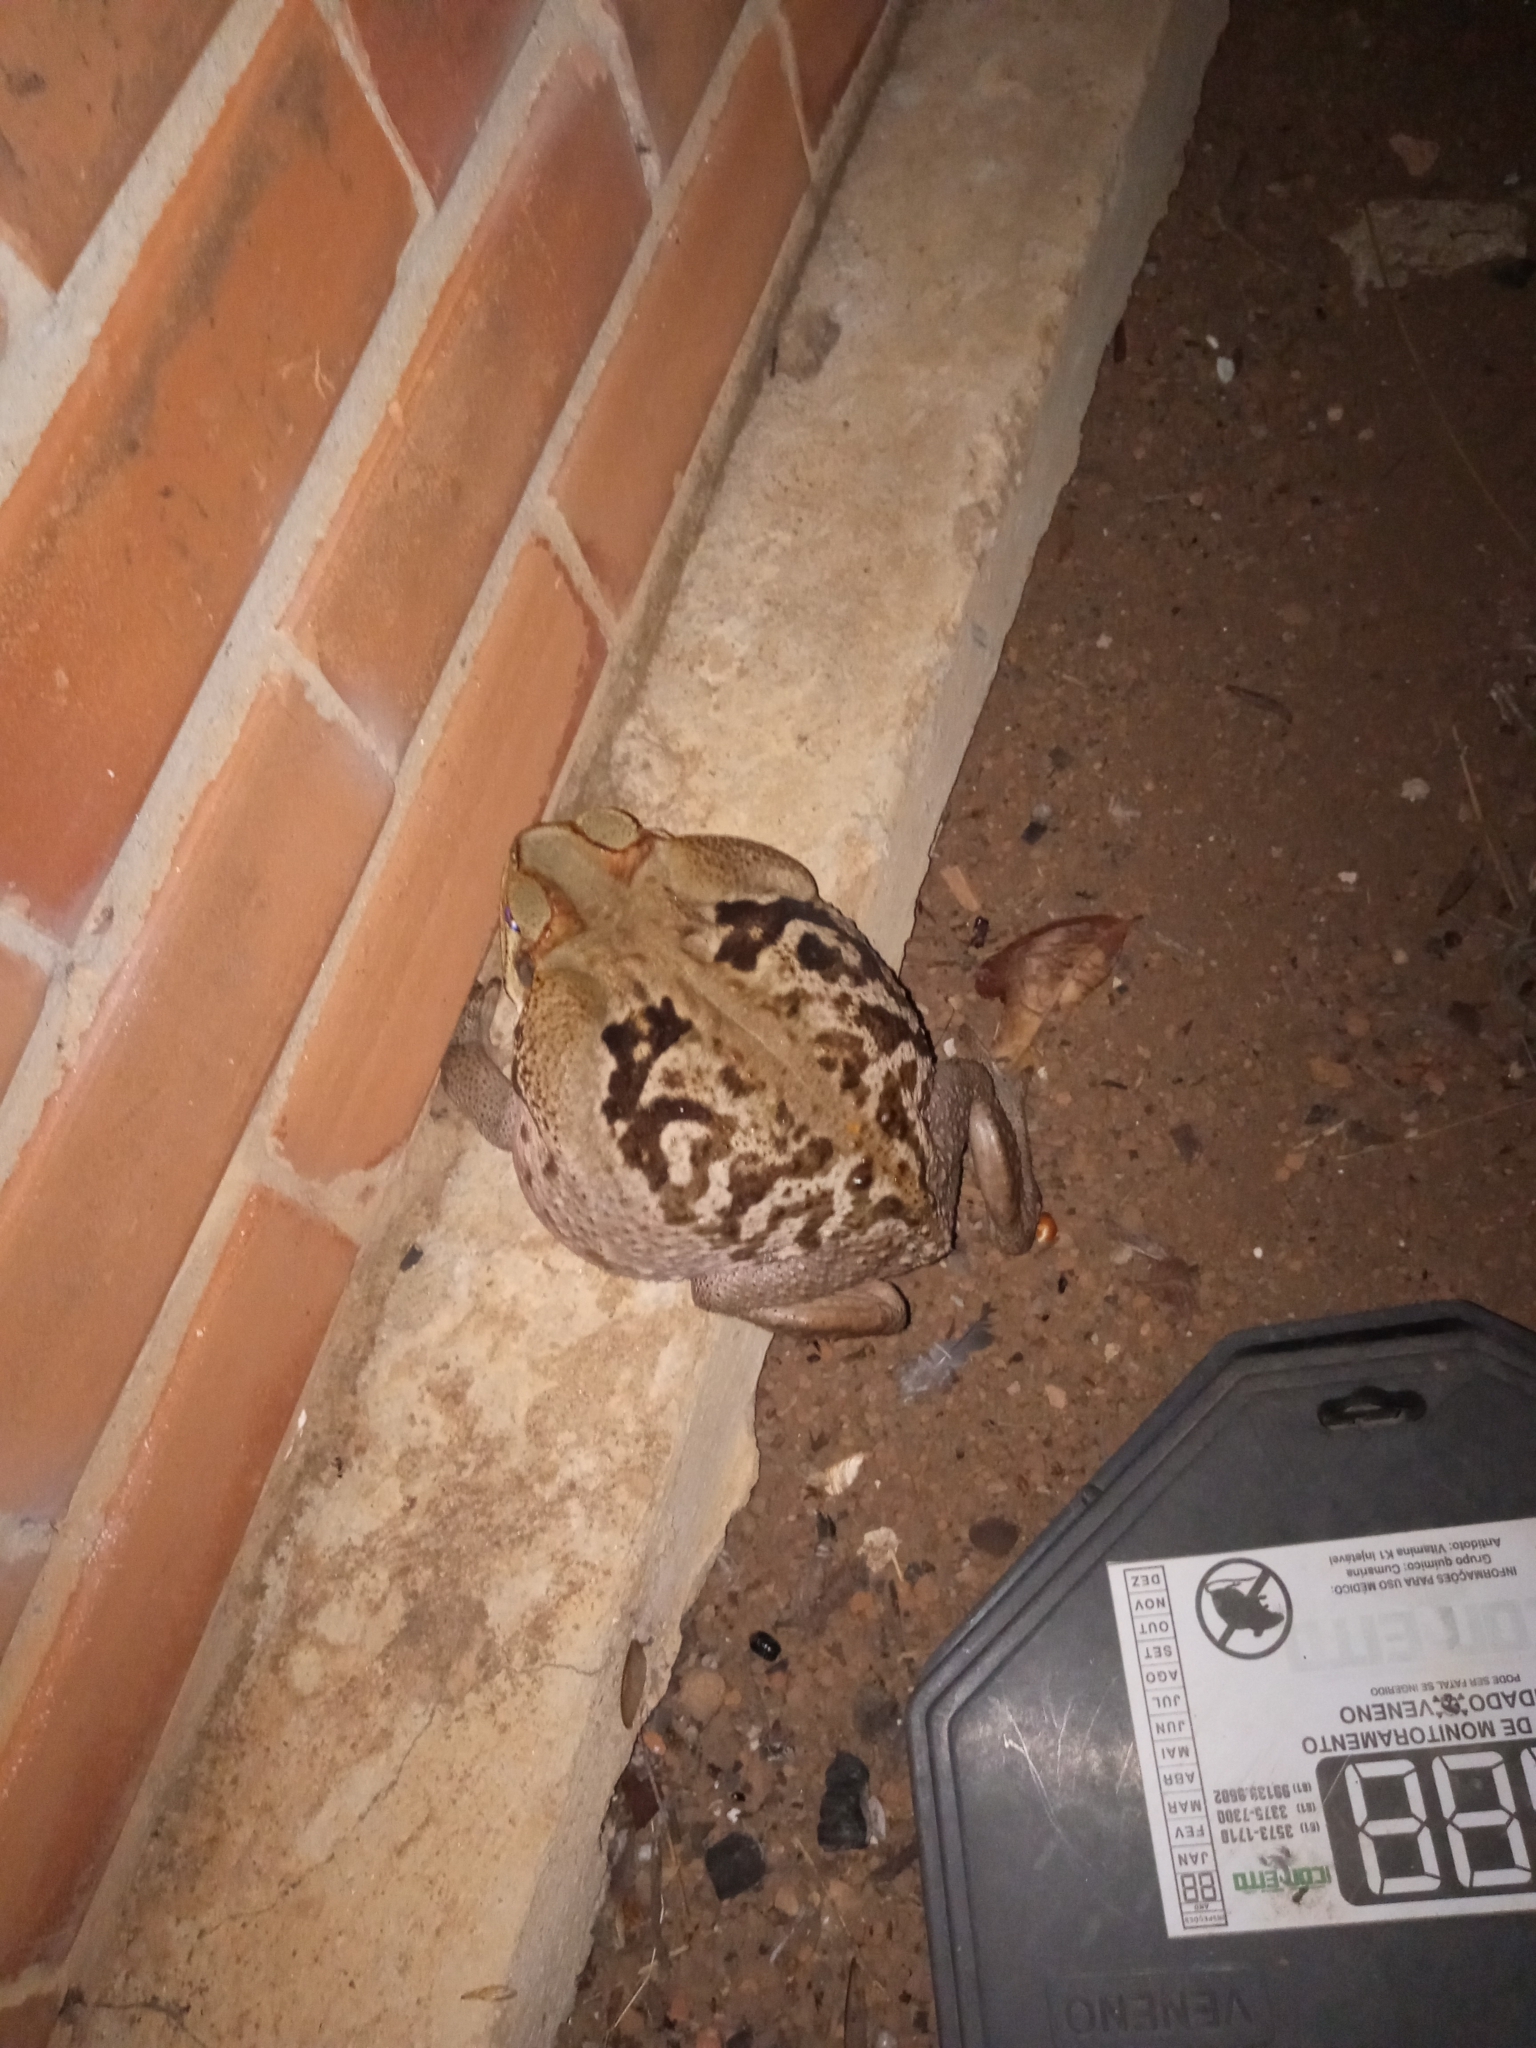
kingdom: Animalia
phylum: Chordata
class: Amphibia
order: Anura
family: Bufonidae
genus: Rhinella
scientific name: Rhinella diptycha
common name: Cope's toad
